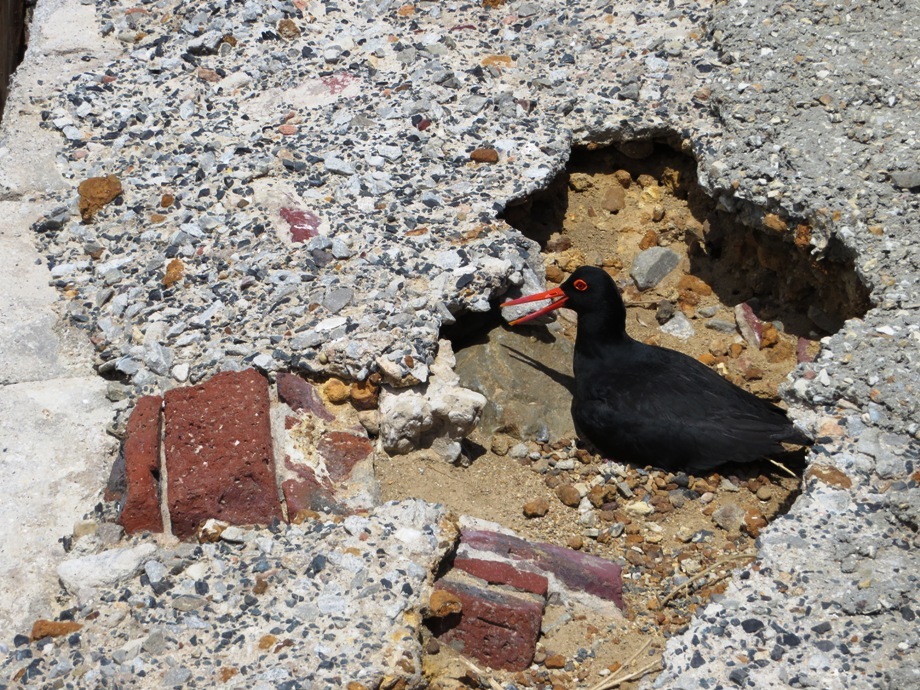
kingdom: Animalia
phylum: Chordata
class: Aves
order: Charadriiformes
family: Haematopodidae
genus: Haematopus
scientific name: Haematopus moquini
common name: African oystercatcher
